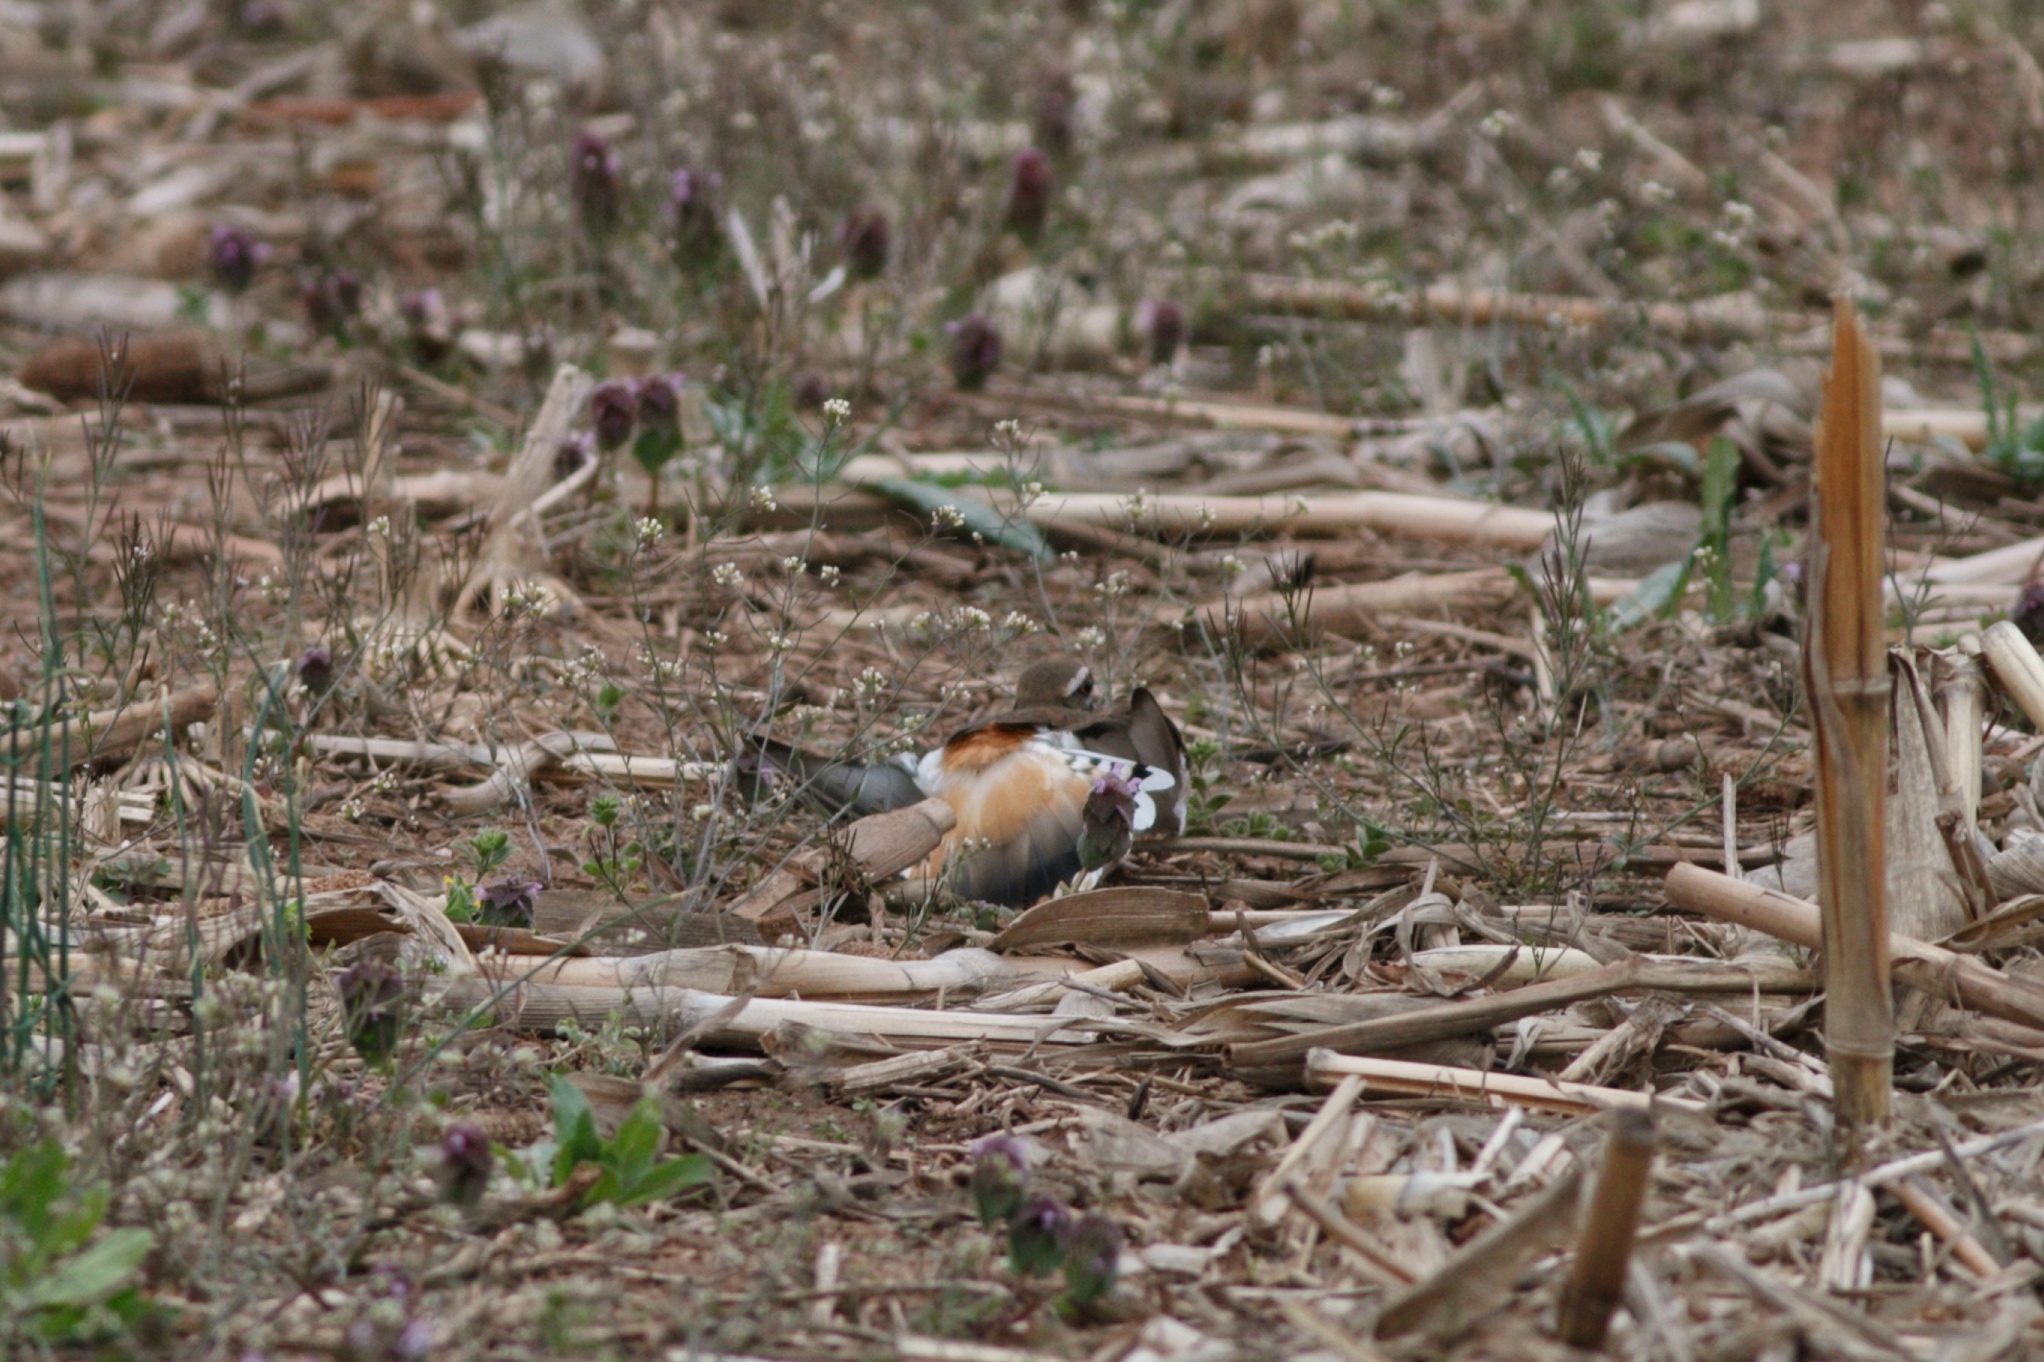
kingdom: Animalia
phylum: Chordata
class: Aves
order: Charadriiformes
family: Charadriidae
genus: Charadrius
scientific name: Charadrius vociferus
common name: Killdeer
